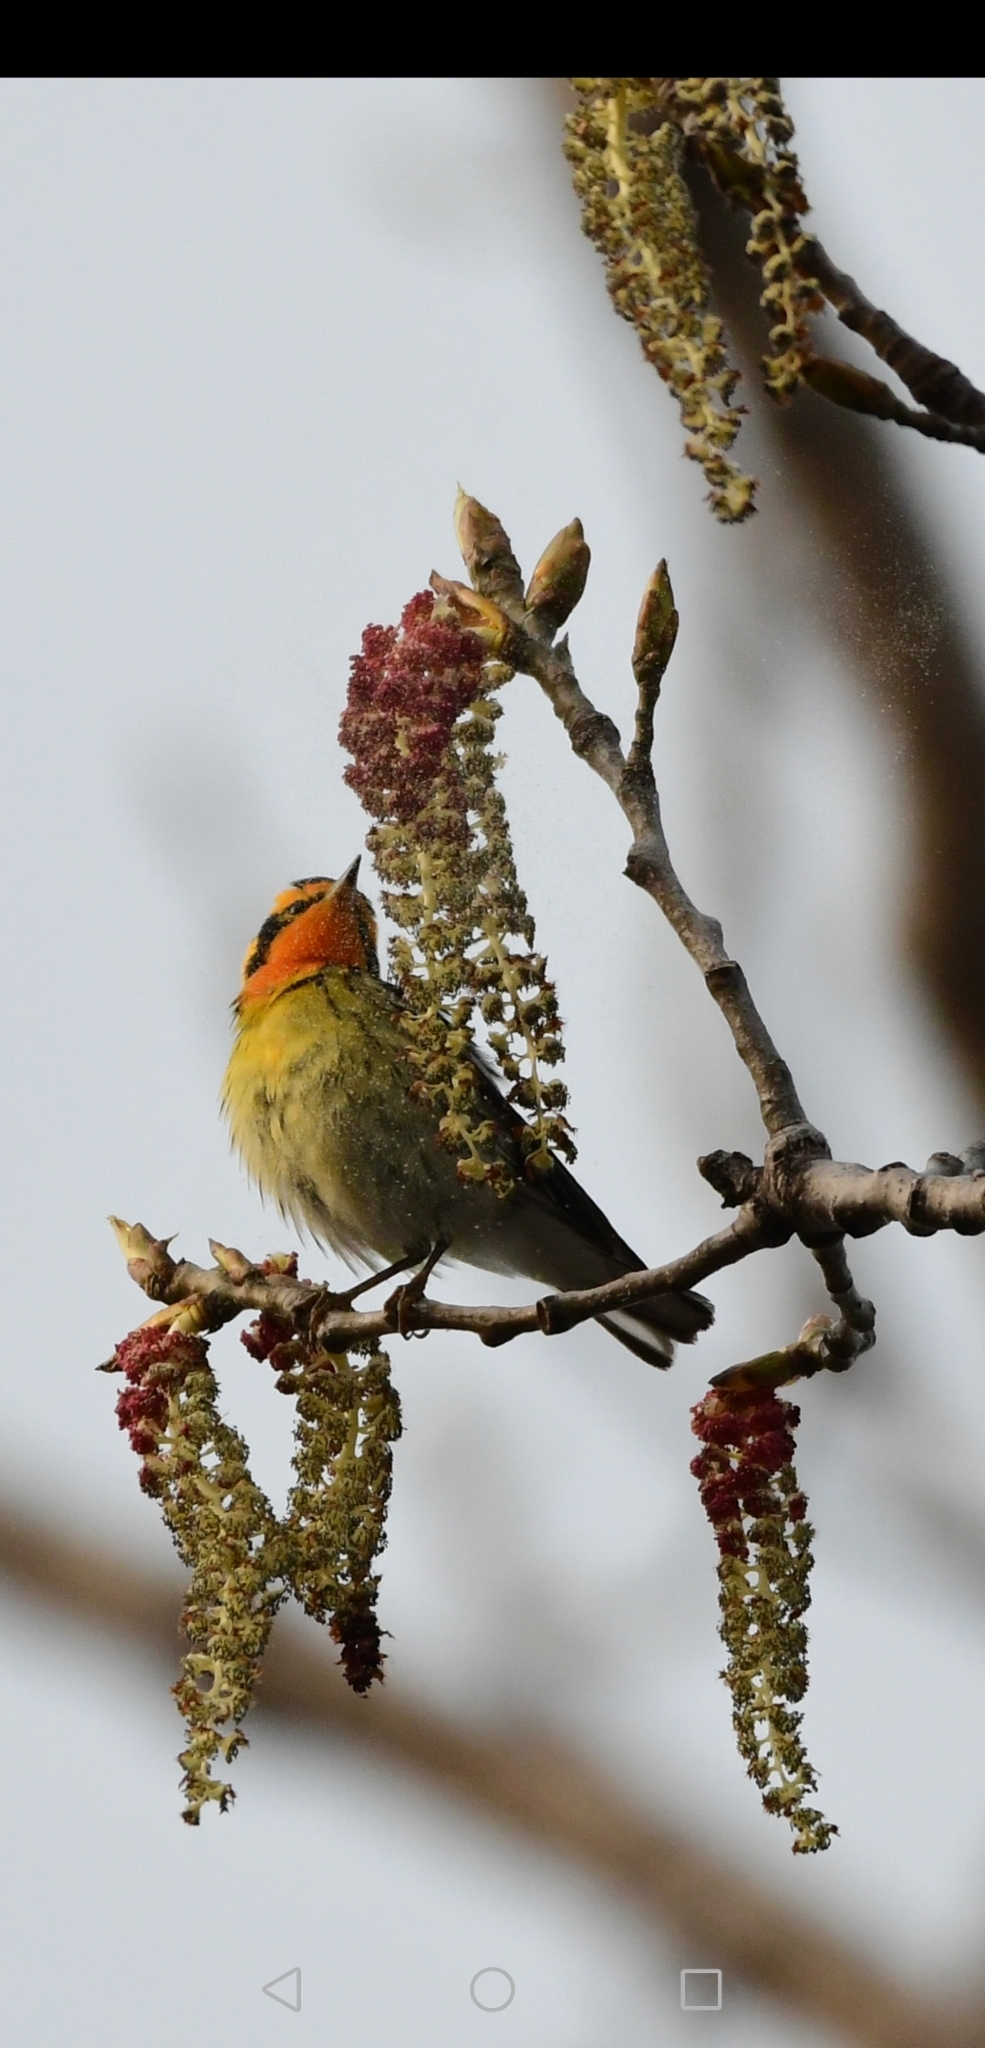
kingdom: Animalia
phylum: Chordata
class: Aves
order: Passeriformes
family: Parulidae
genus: Setophaga
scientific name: Setophaga fusca
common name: Blackburnian warbler
